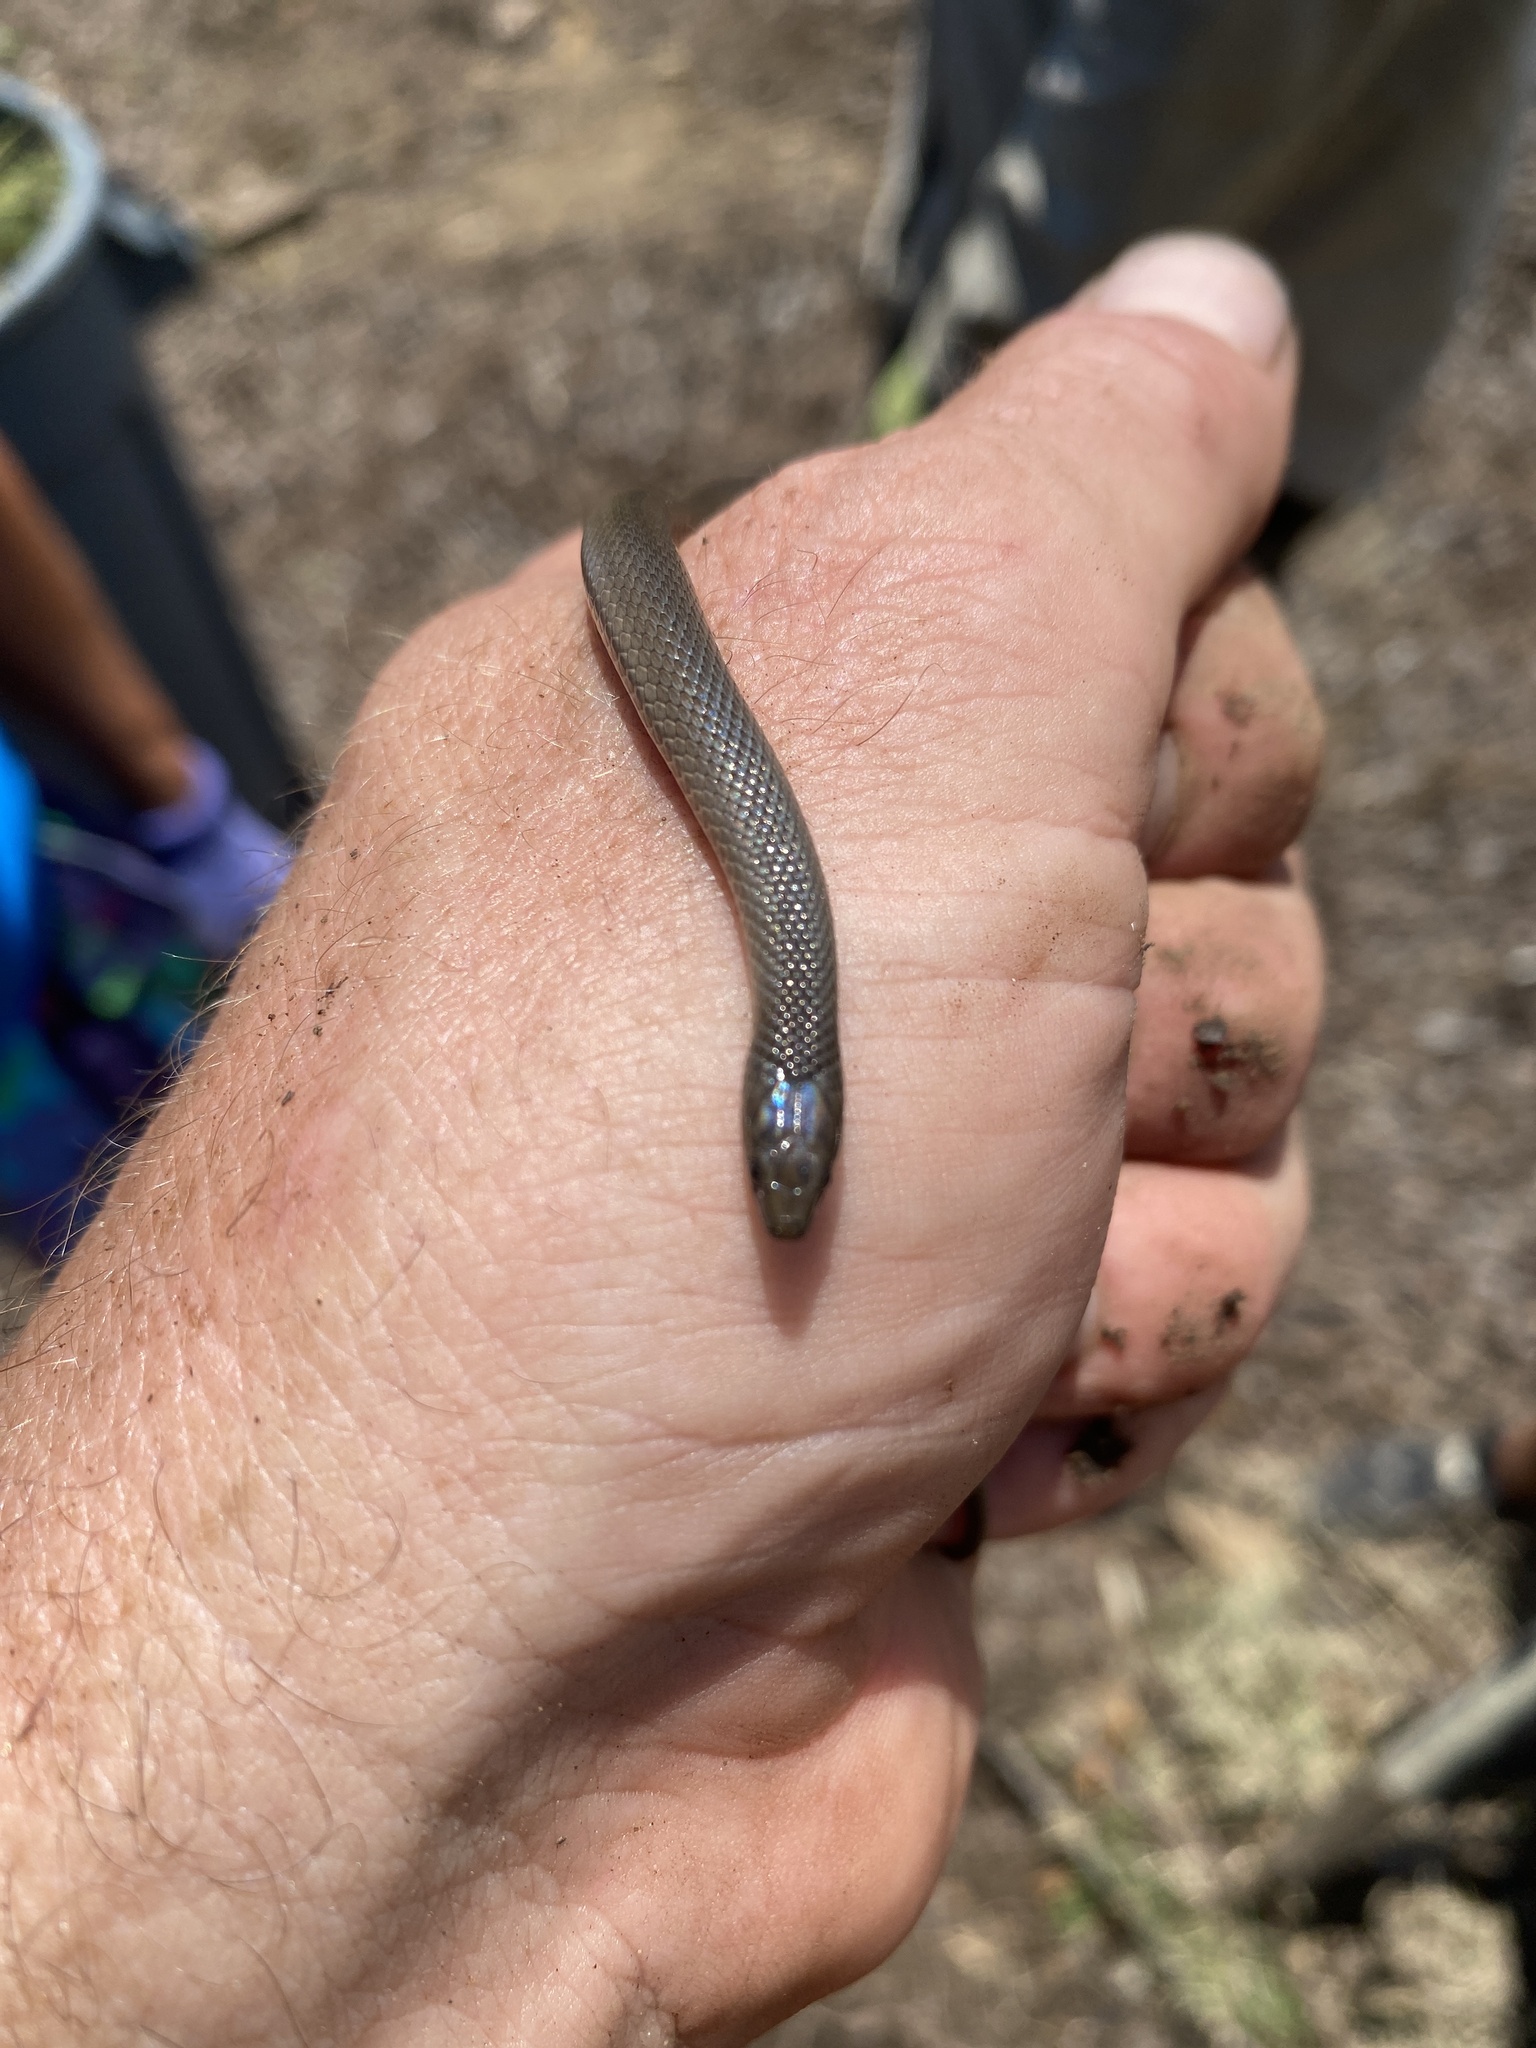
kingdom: Animalia
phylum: Chordata
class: Squamata
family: Colubridae
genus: Haldea
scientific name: Haldea striatula
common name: Rough earth snake
